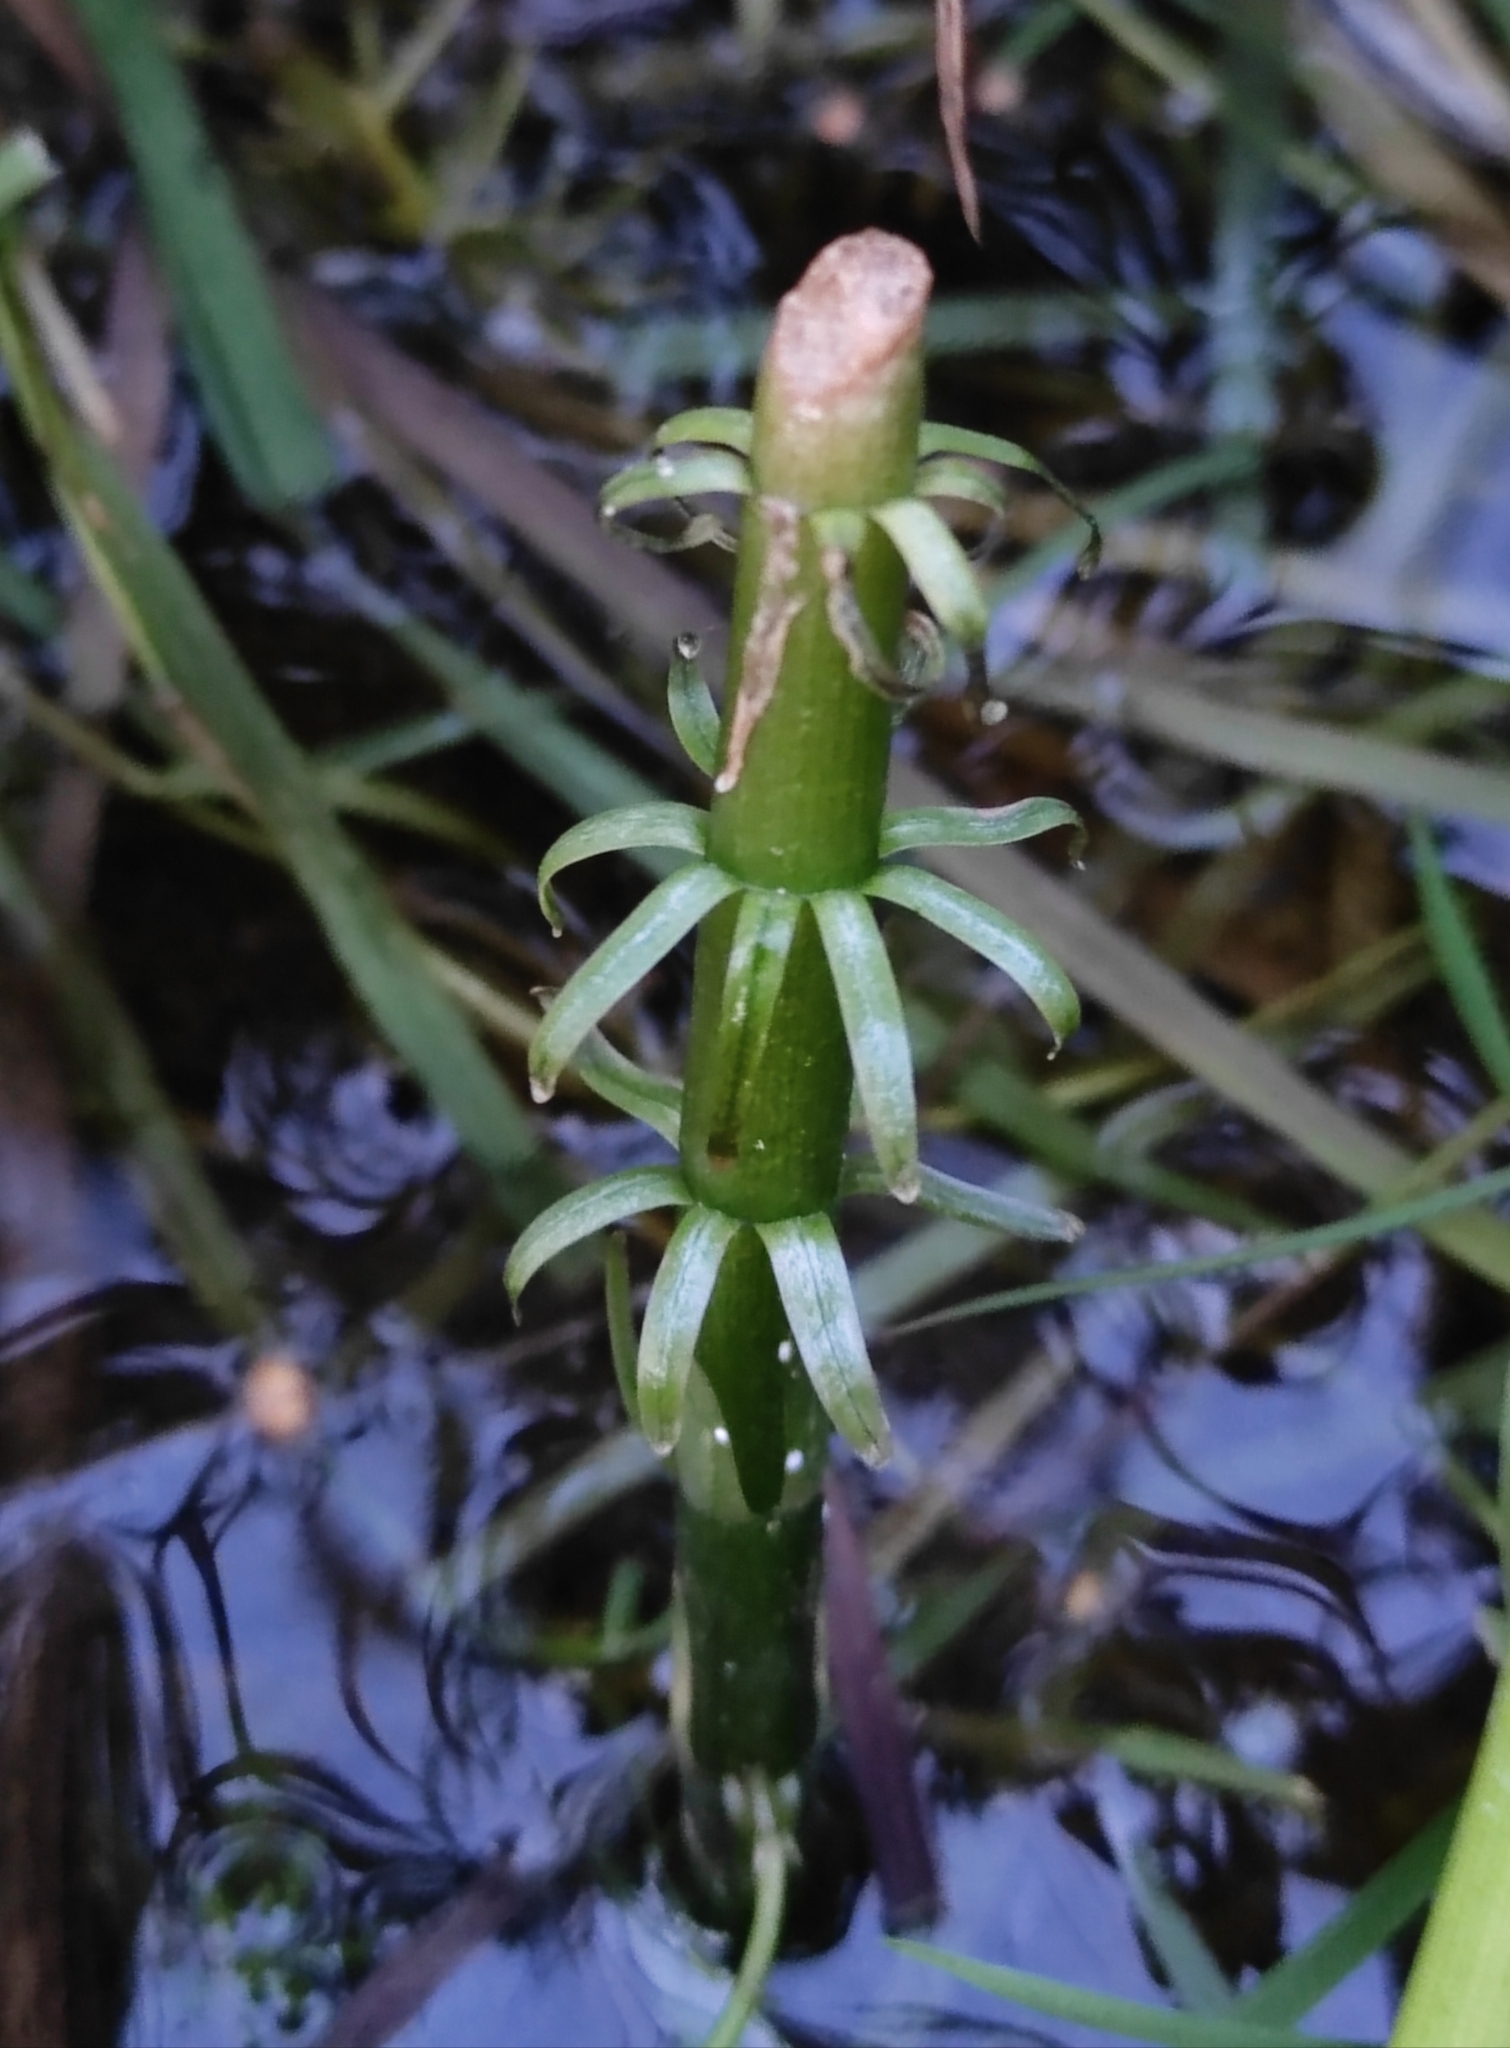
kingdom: Plantae
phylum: Tracheophyta
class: Magnoliopsida
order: Lamiales
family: Plantaginaceae
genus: Hippuris
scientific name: Hippuris vulgaris
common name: Mare's-tail
